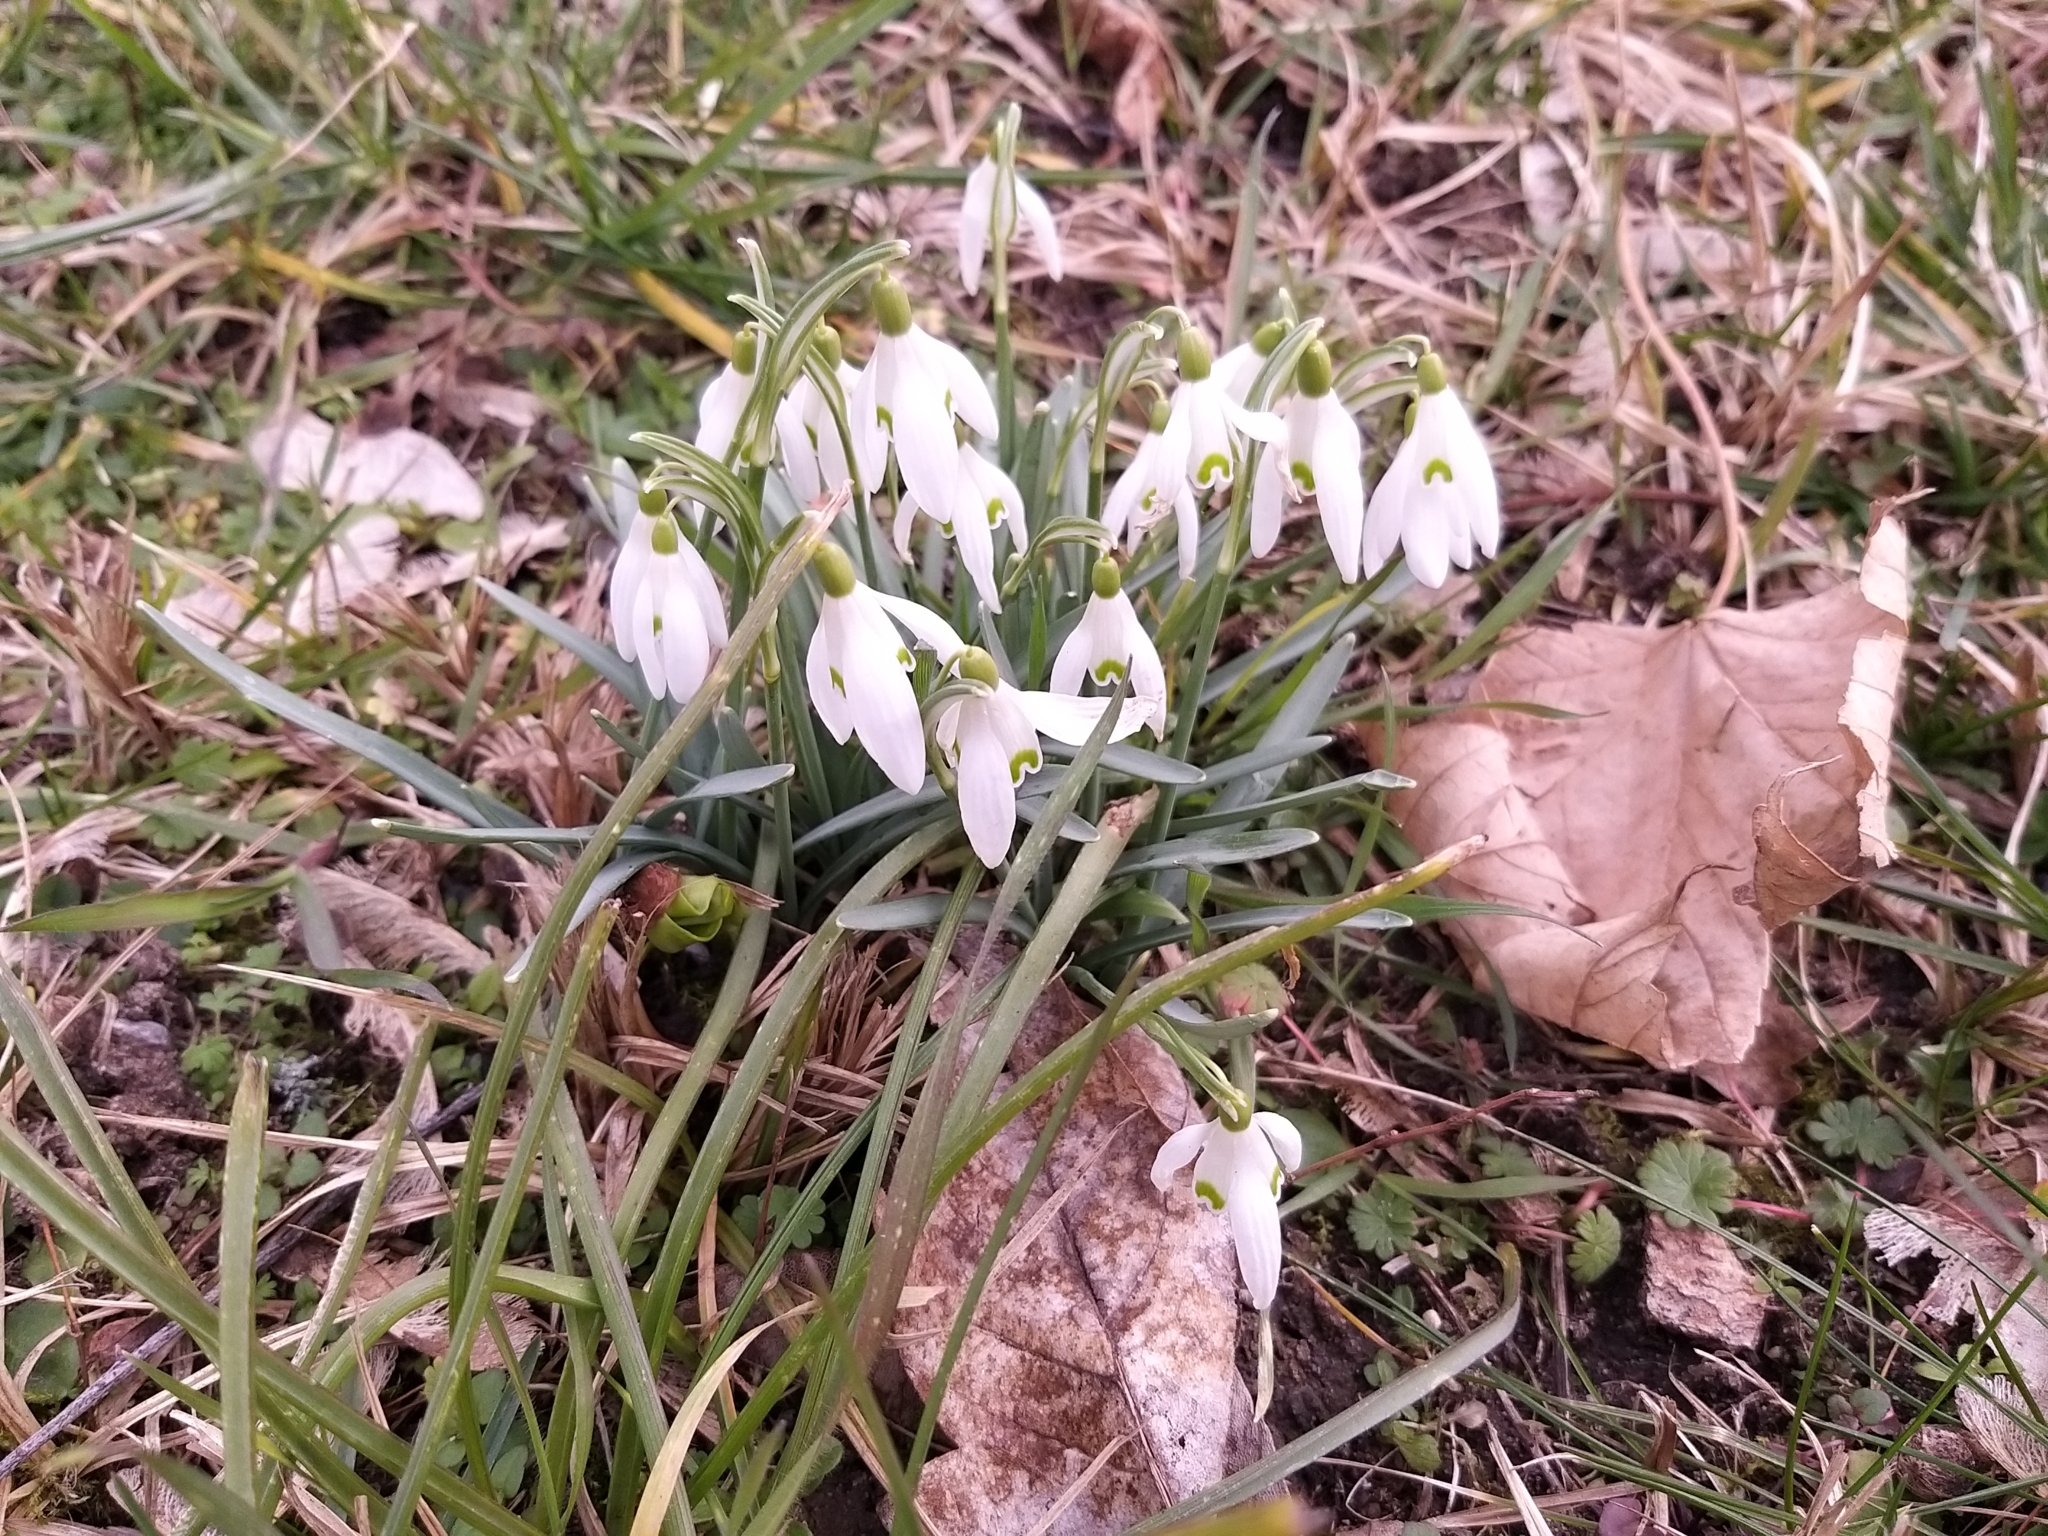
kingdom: Plantae
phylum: Tracheophyta
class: Liliopsida
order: Asparagales
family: Amaryllidaceae
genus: Galanthus
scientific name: Galanthus nivalis
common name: Snowdrop
